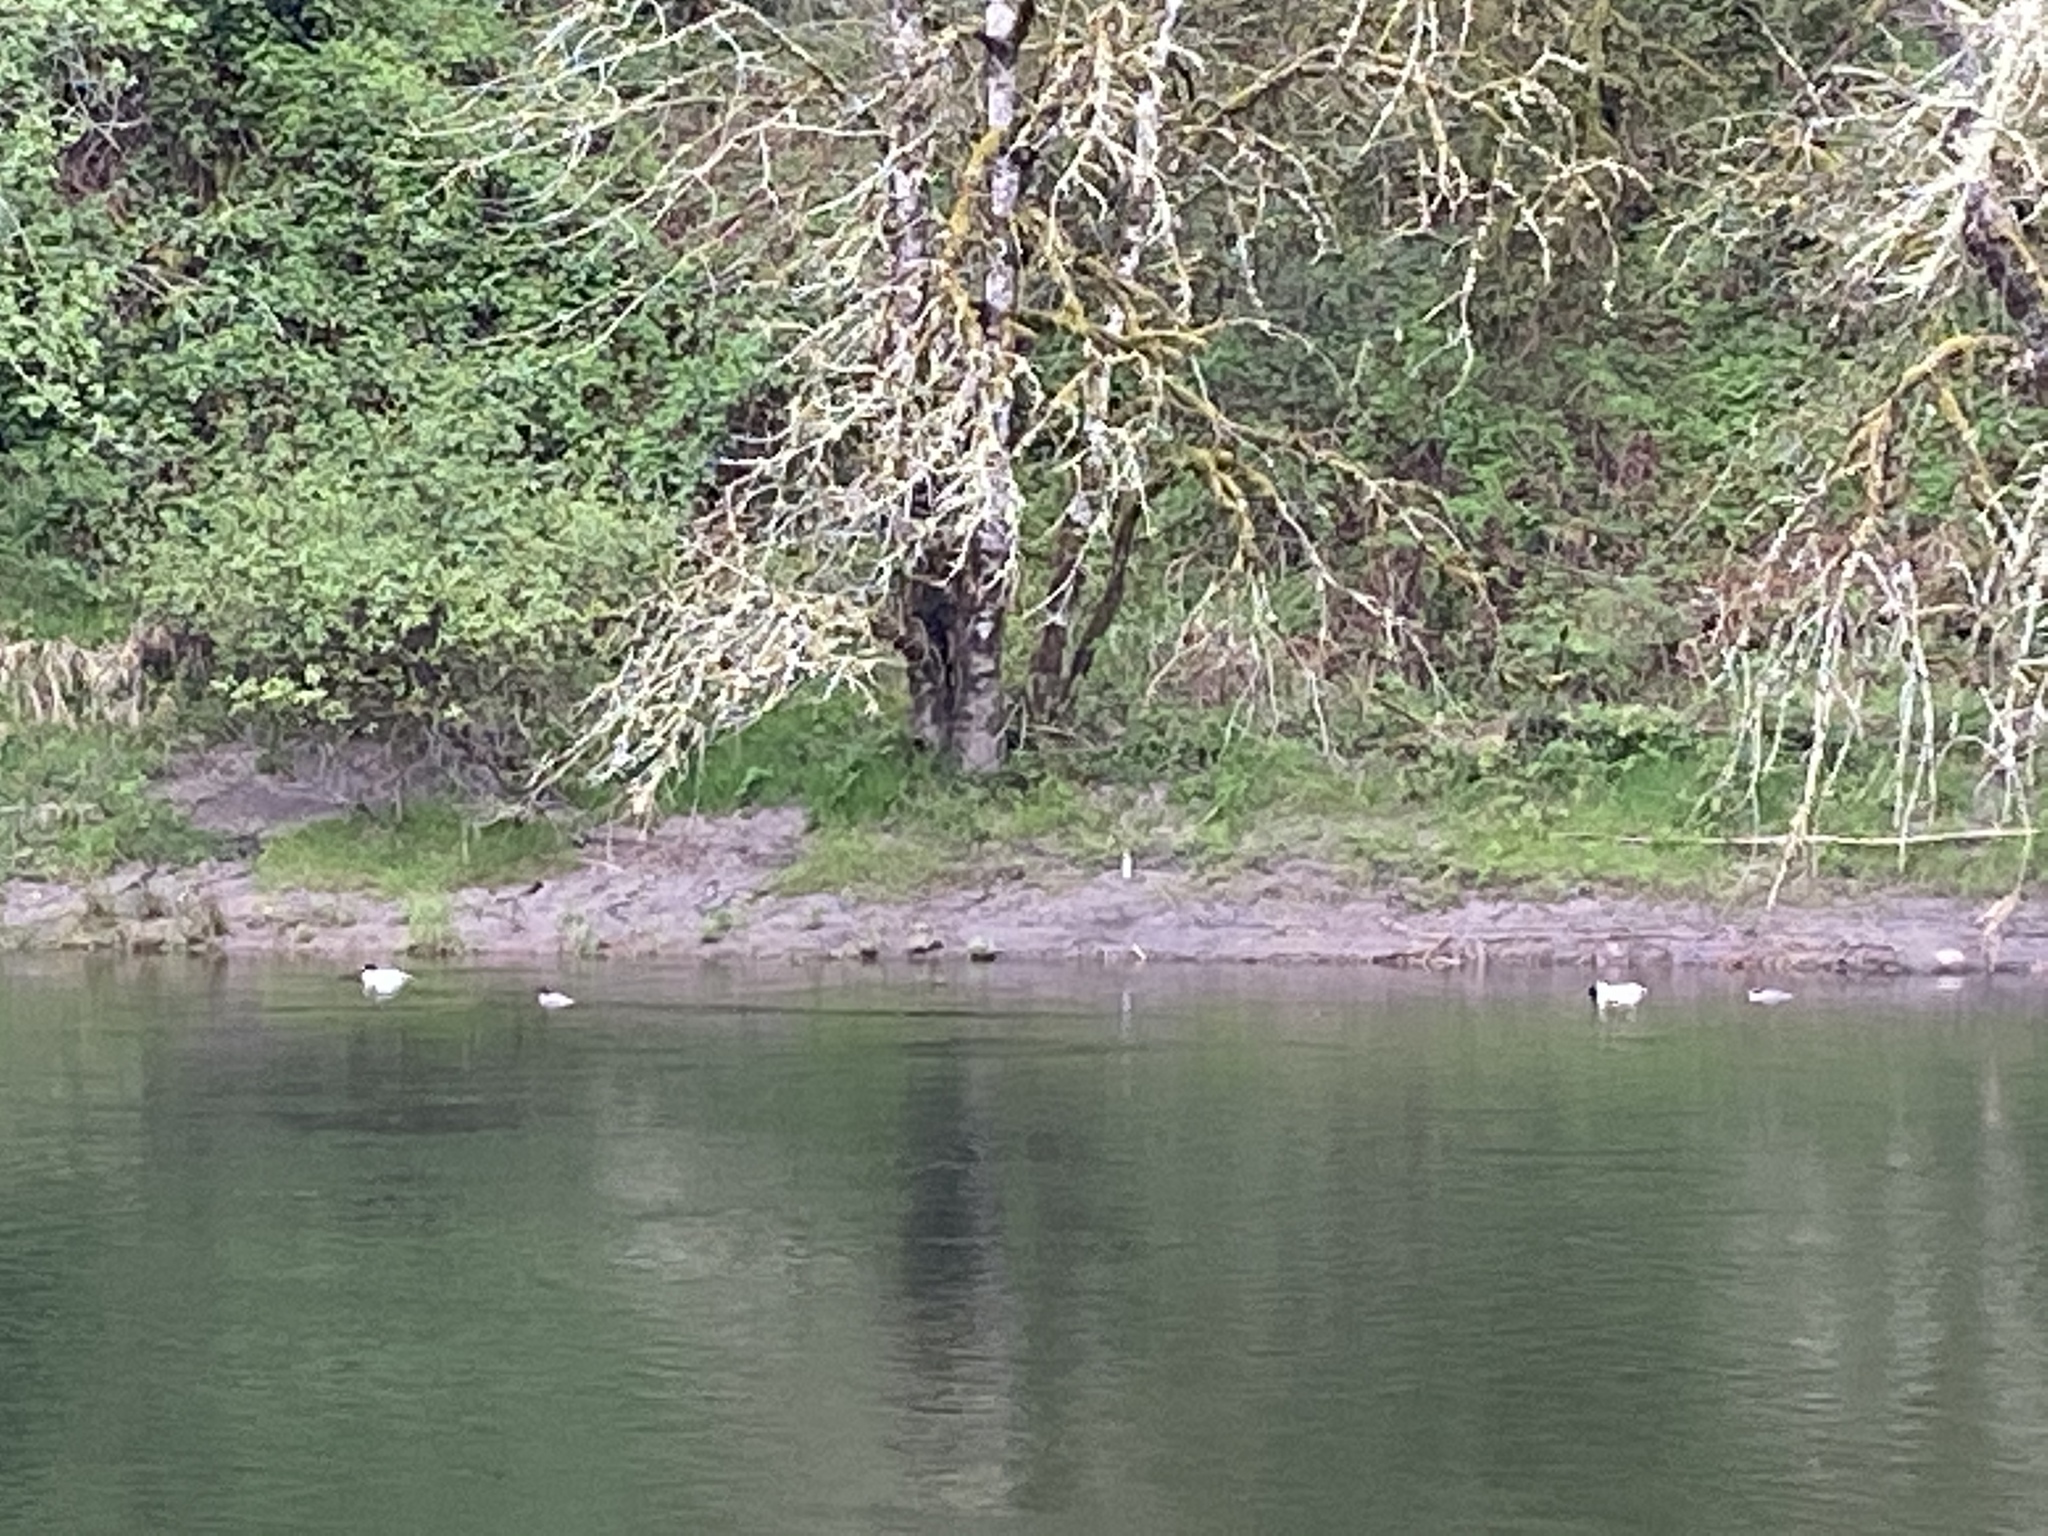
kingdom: Animalia
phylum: Chordata
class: Aves
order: Anseriformes
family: Anatidae
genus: Mergus
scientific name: Mergus merganser
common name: Common merganser
